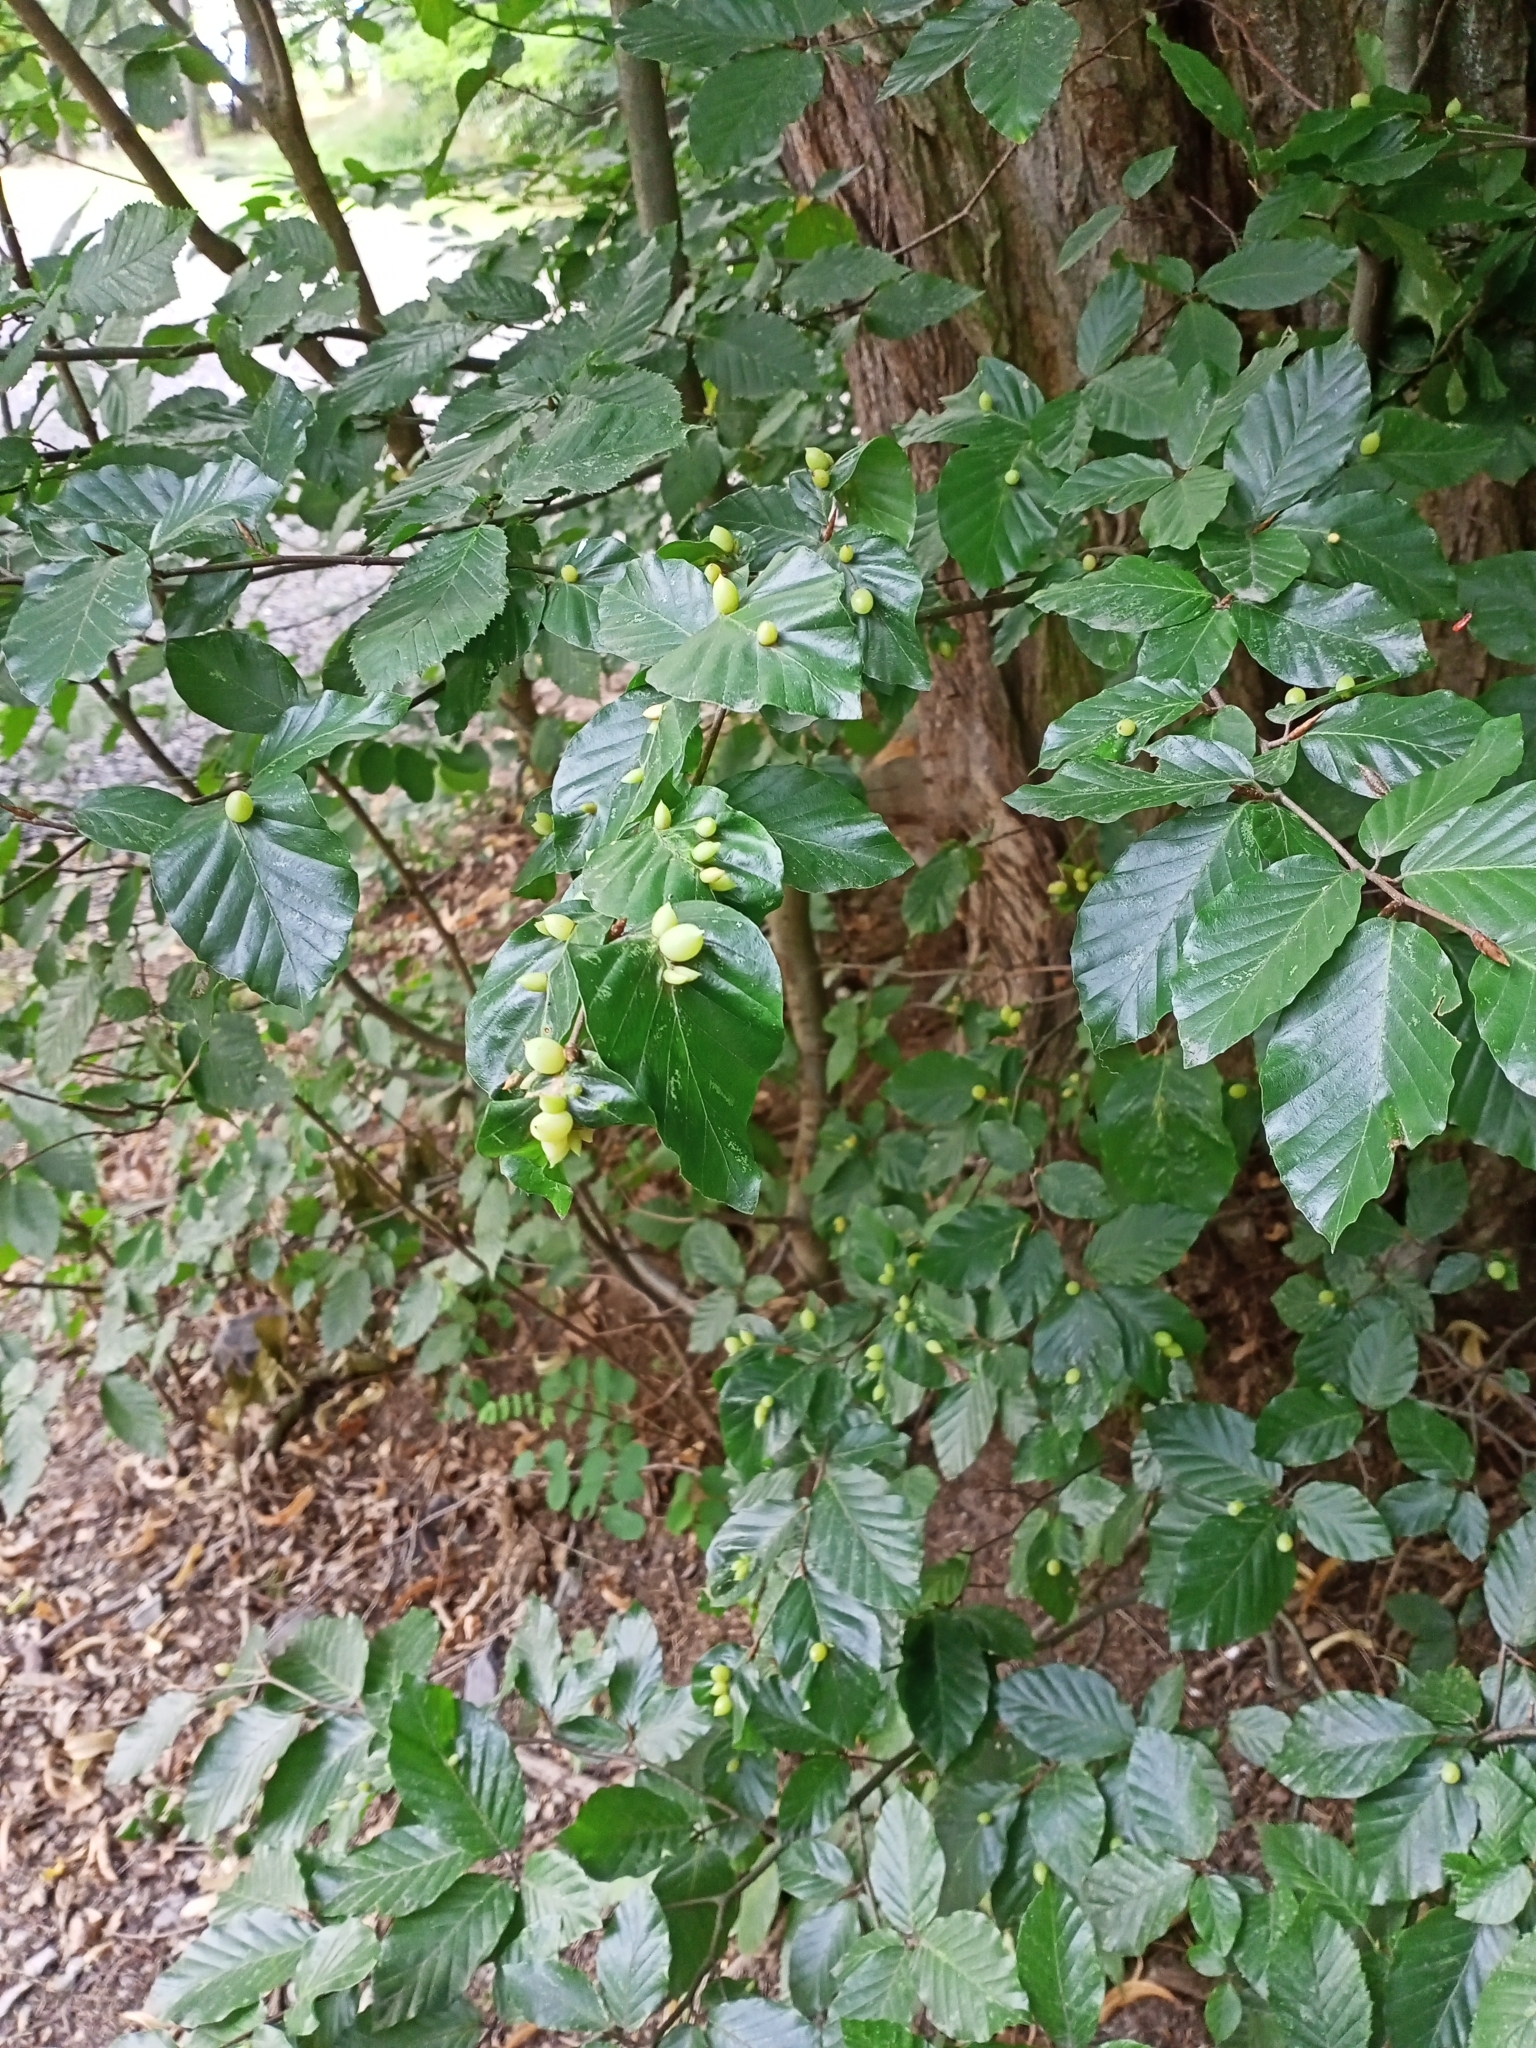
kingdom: Animalia
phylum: Arthropoda
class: Insecta
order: Diptera
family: Cecidomyiidae
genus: Mikiola
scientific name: Mikiola fagi
